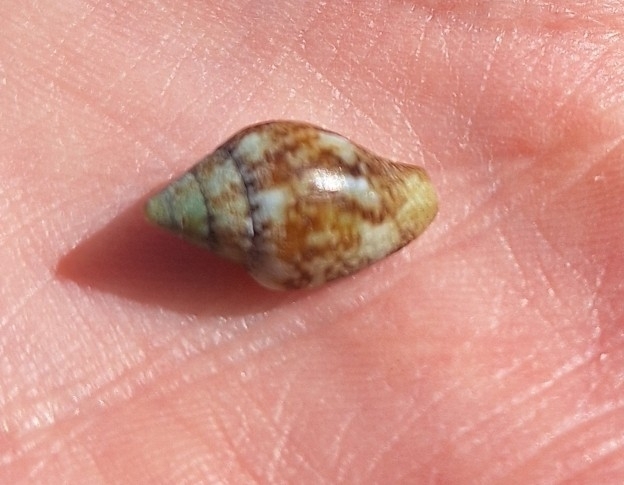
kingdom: Animalia
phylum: Mollusca
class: Gastropoda
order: Neogastropoda
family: Columbellidae
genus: Columbella
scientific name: Columbella rustica
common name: Rustic dove shell
